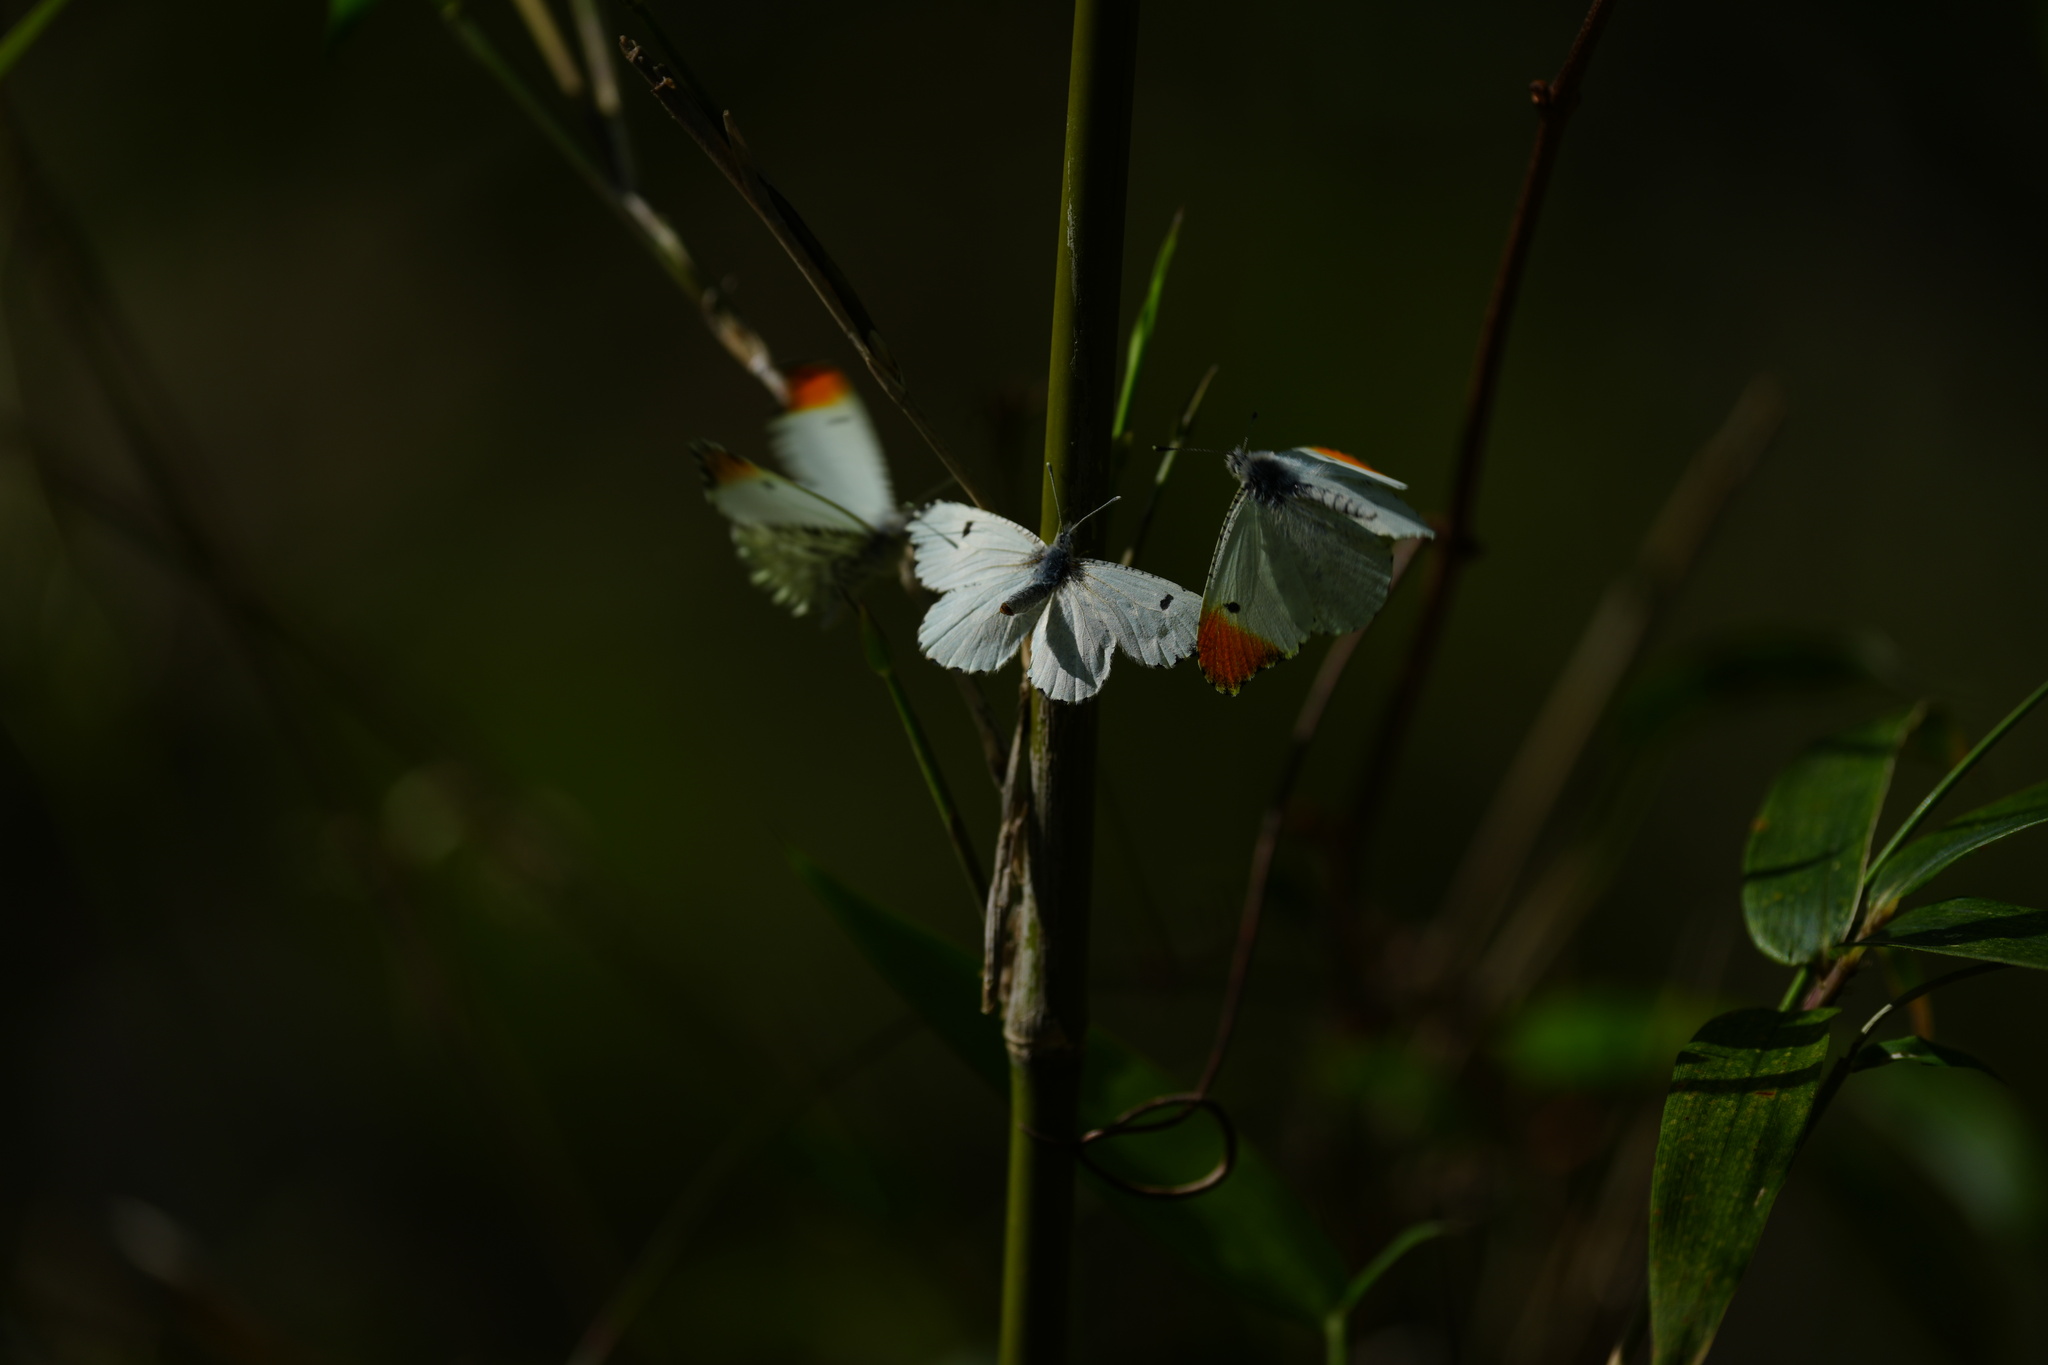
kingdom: Animalia
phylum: Arthropoda
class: Insecta
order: Lepidoptera
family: Pieridae
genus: Anthocharis
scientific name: Anthocharis midea
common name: Falcate orangetip
